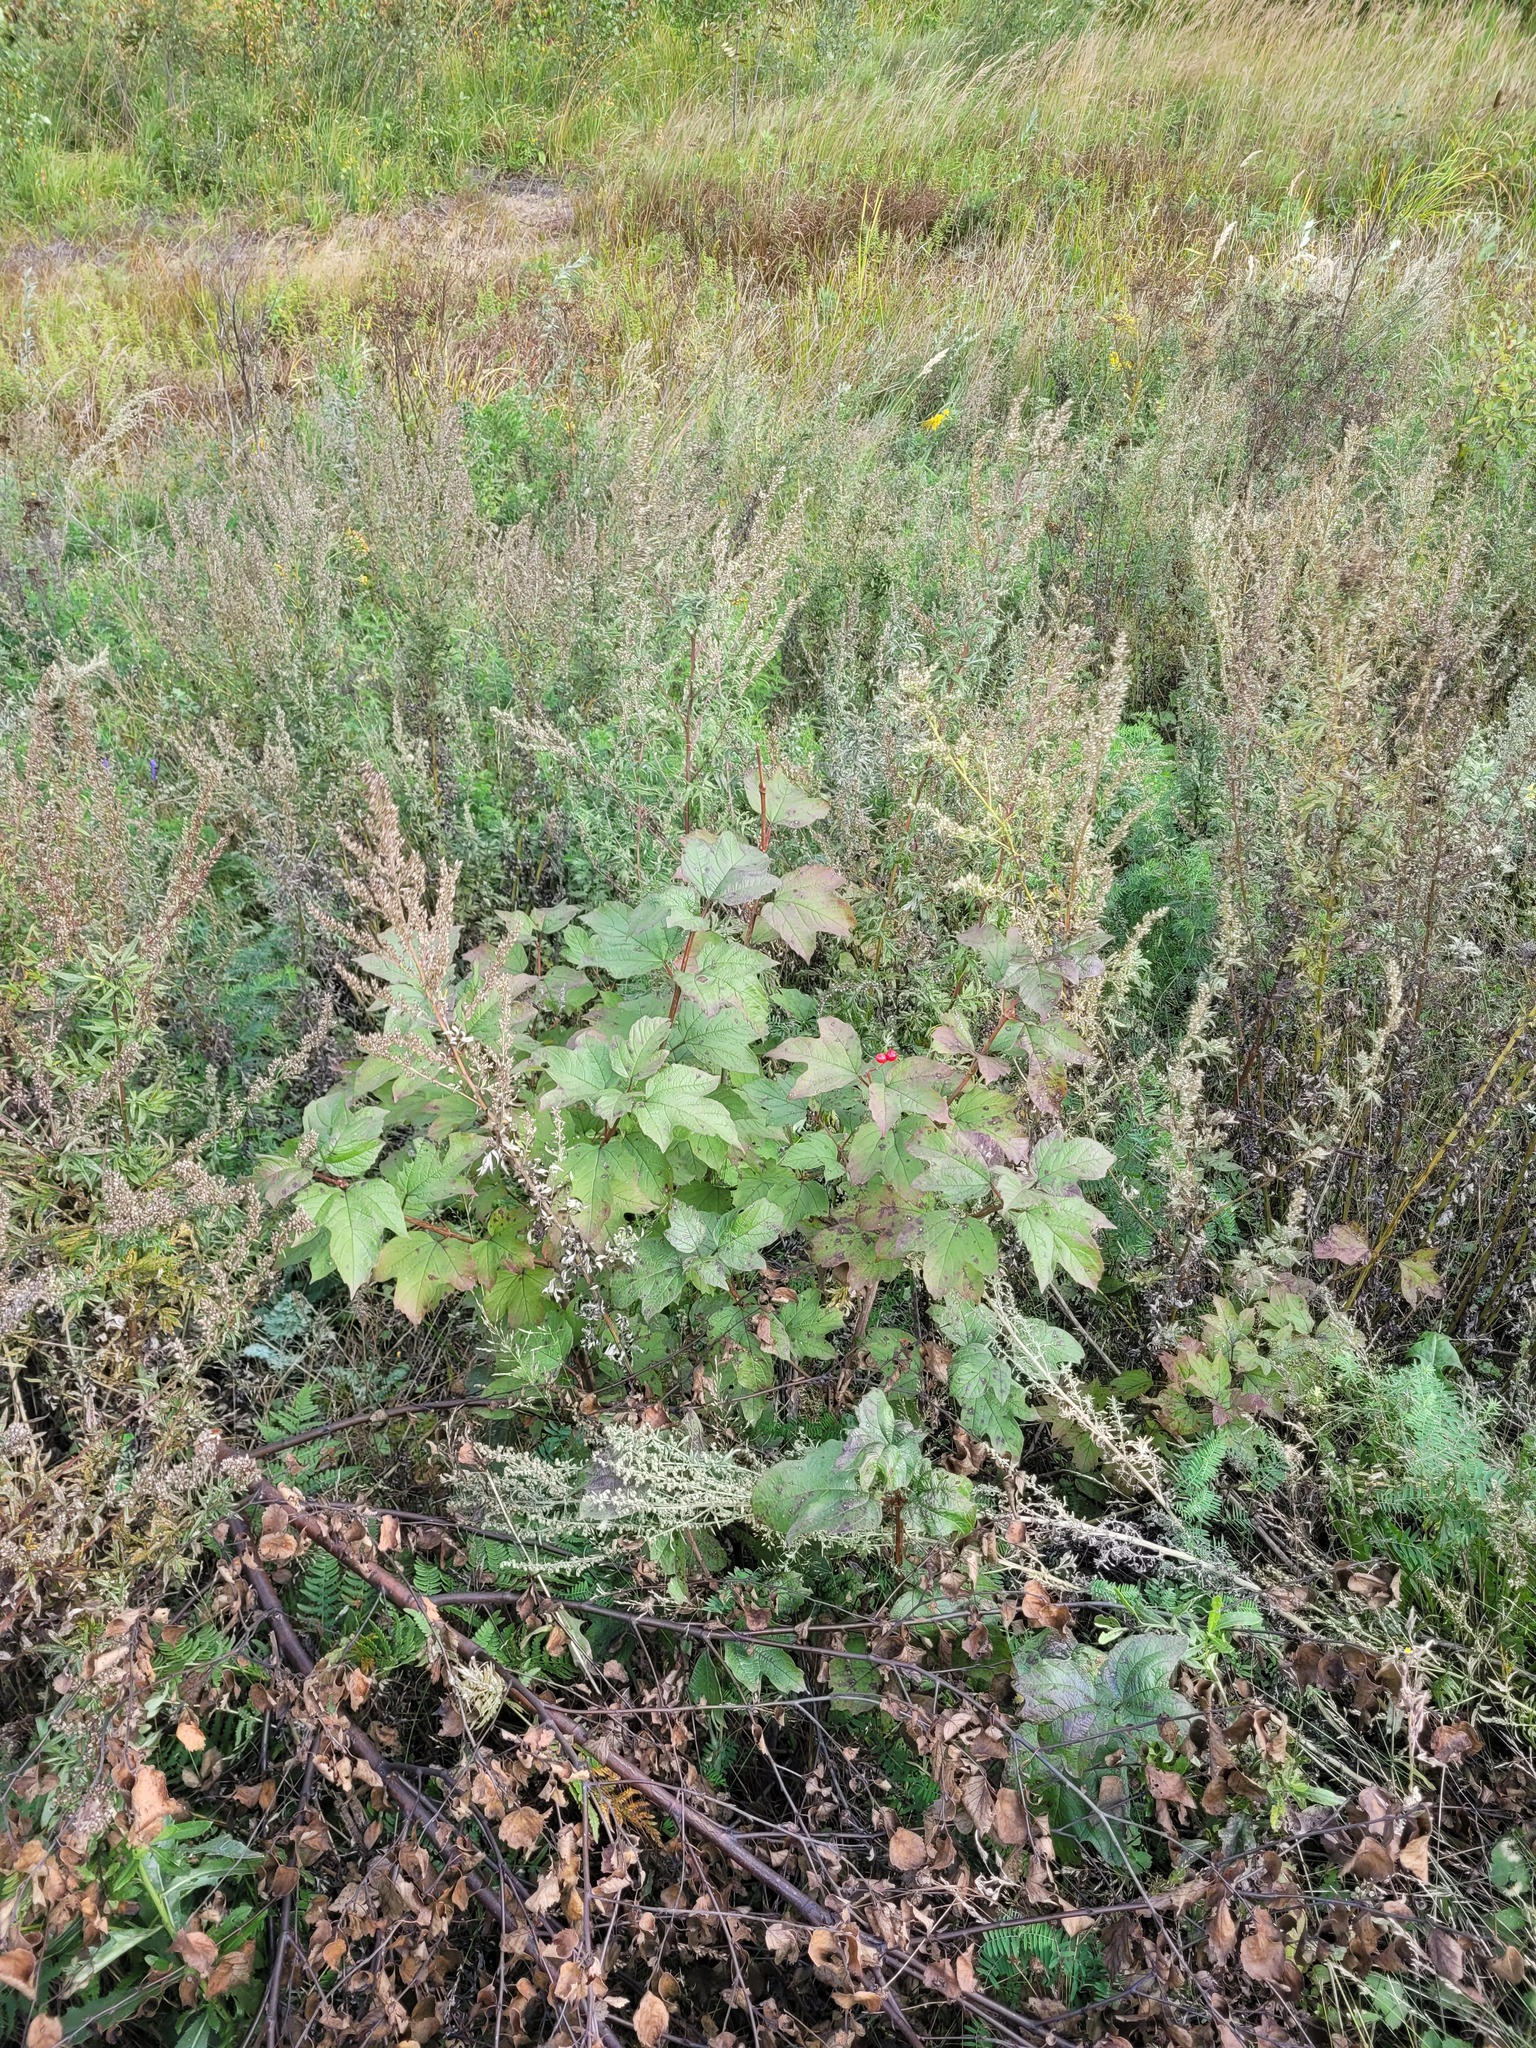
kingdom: Plantae
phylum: Tracheophyta
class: Magnoliopsida
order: Dipsacales
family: Viburnaceae
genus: Viburnum
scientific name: Viburnum opulus
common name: Guelder-rose
